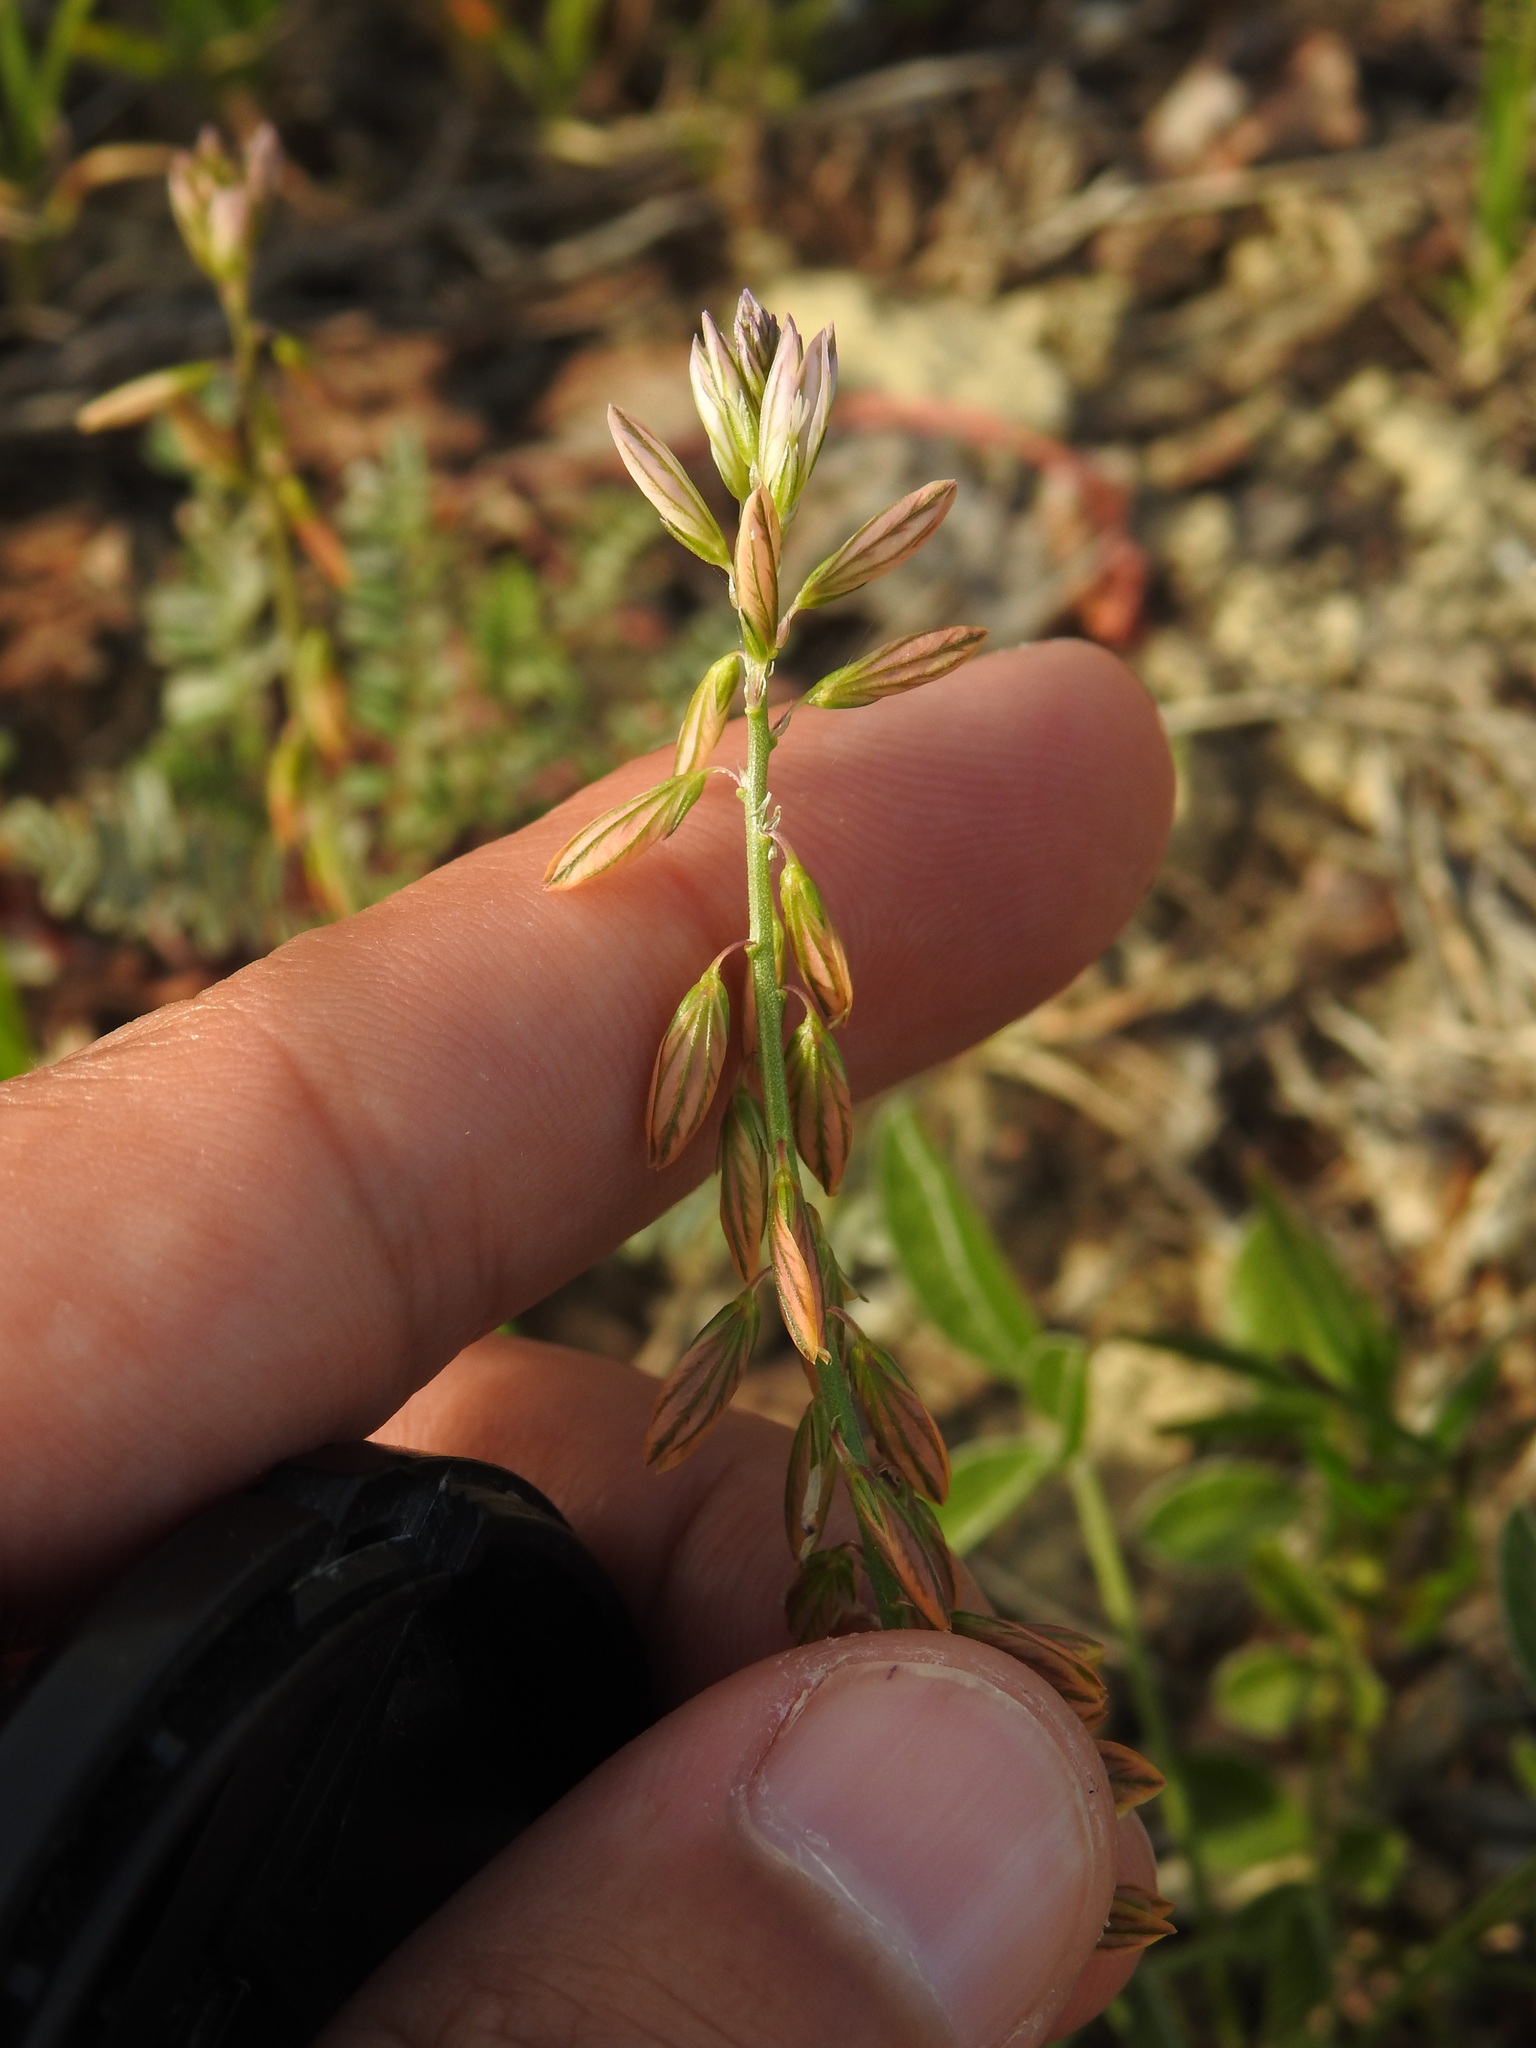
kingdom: Plantae
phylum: Tracheophyta
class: Magnoliopsida
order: Fabales
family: Polygalaceae
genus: Polygala
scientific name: Polygala monspeliaca
